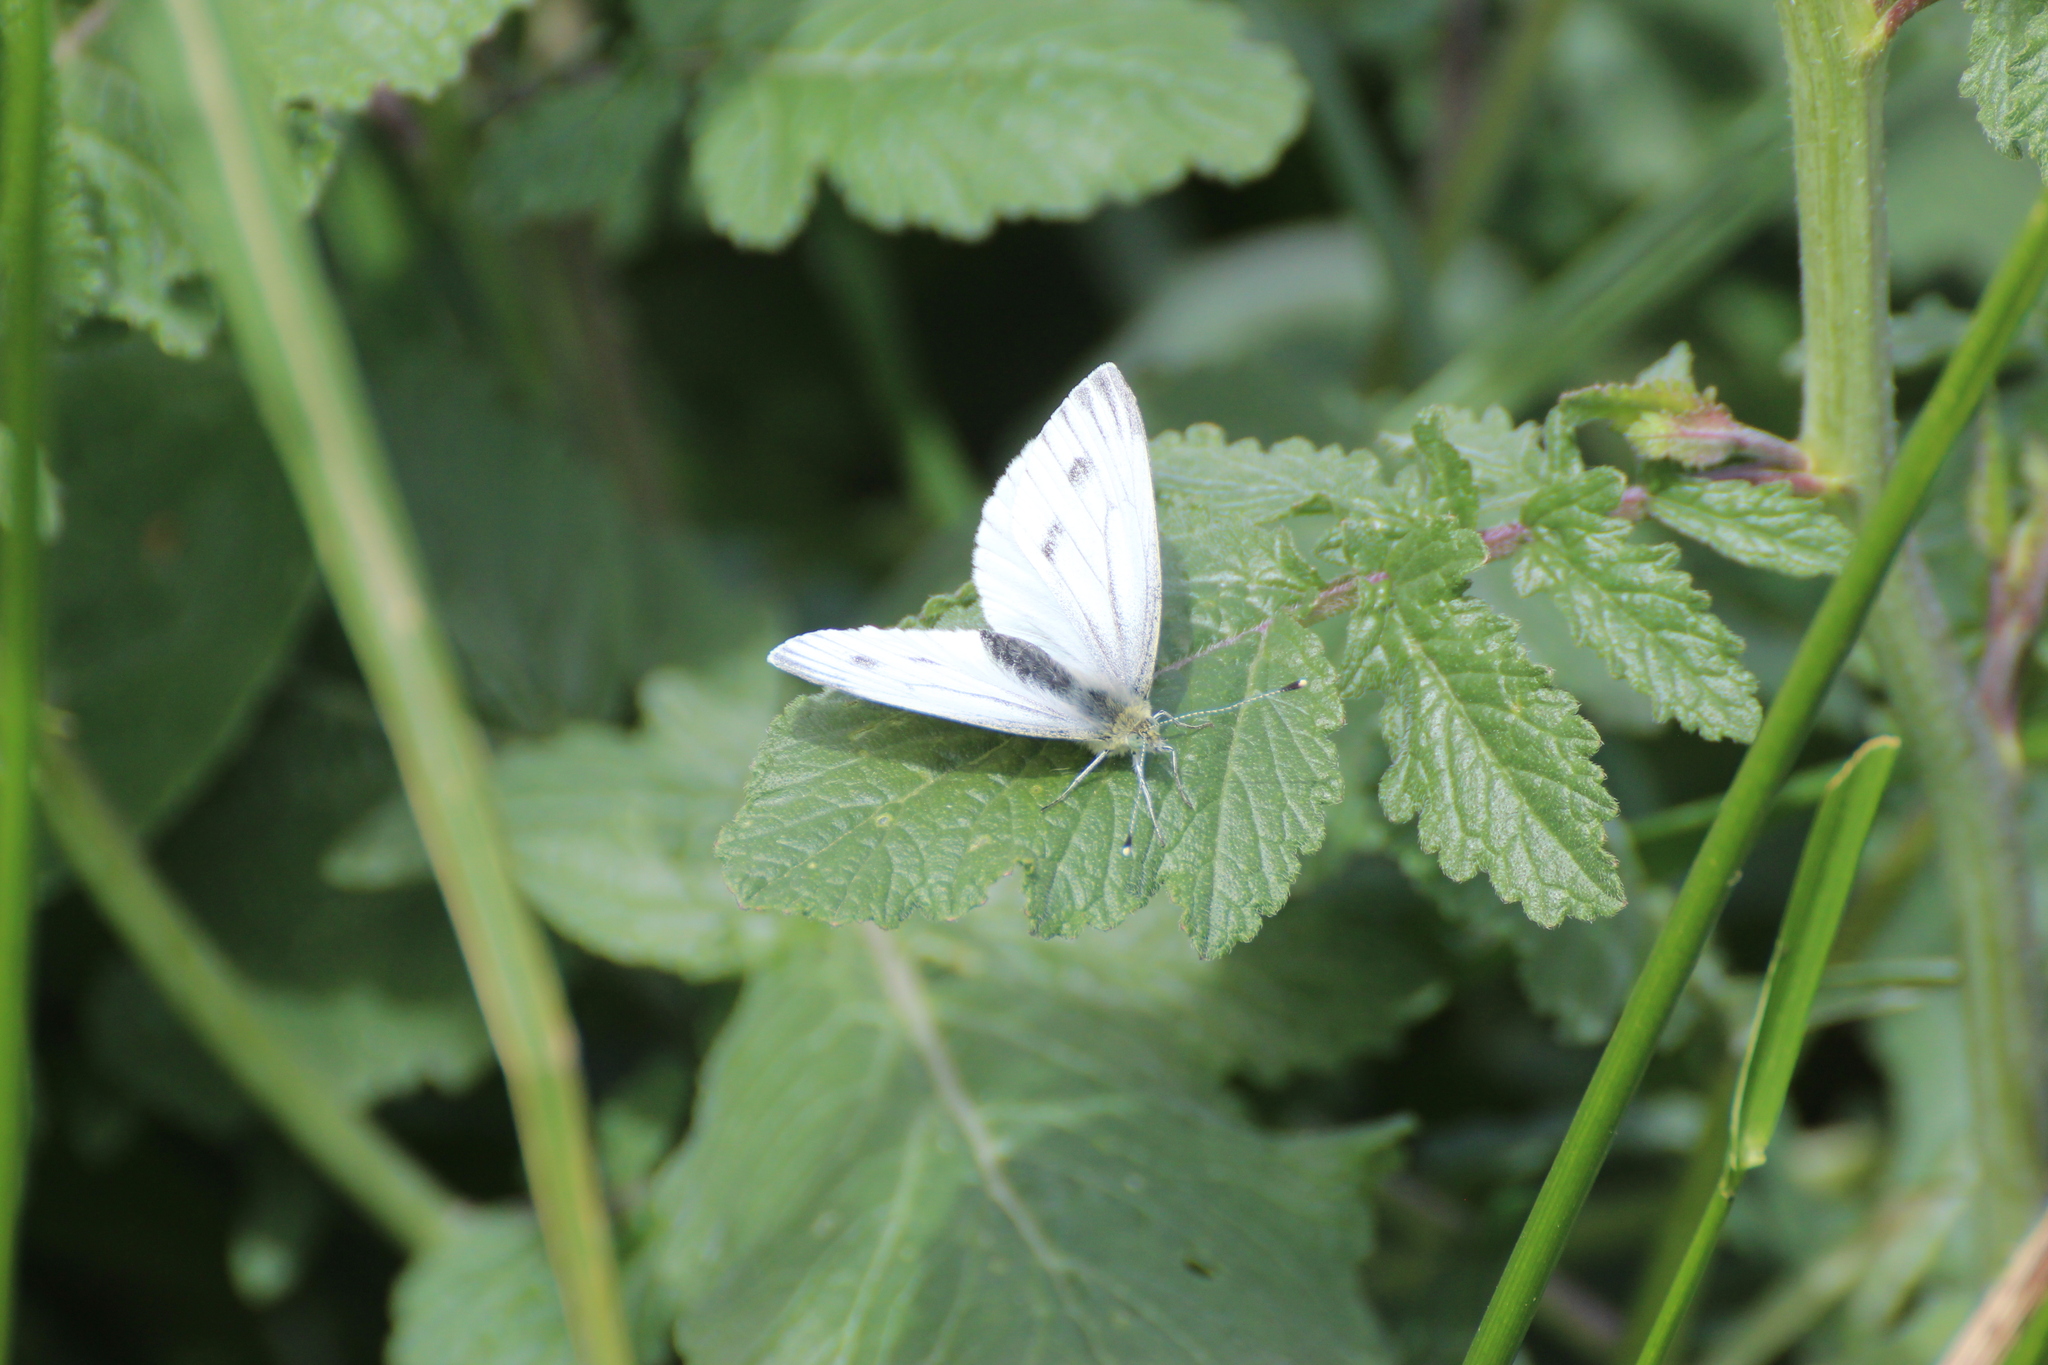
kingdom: Animalia
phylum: Arthropoda
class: Insecta
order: Lepidoptera
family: Pieridae
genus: Pieris
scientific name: Pieris napi
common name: Green-veined white
